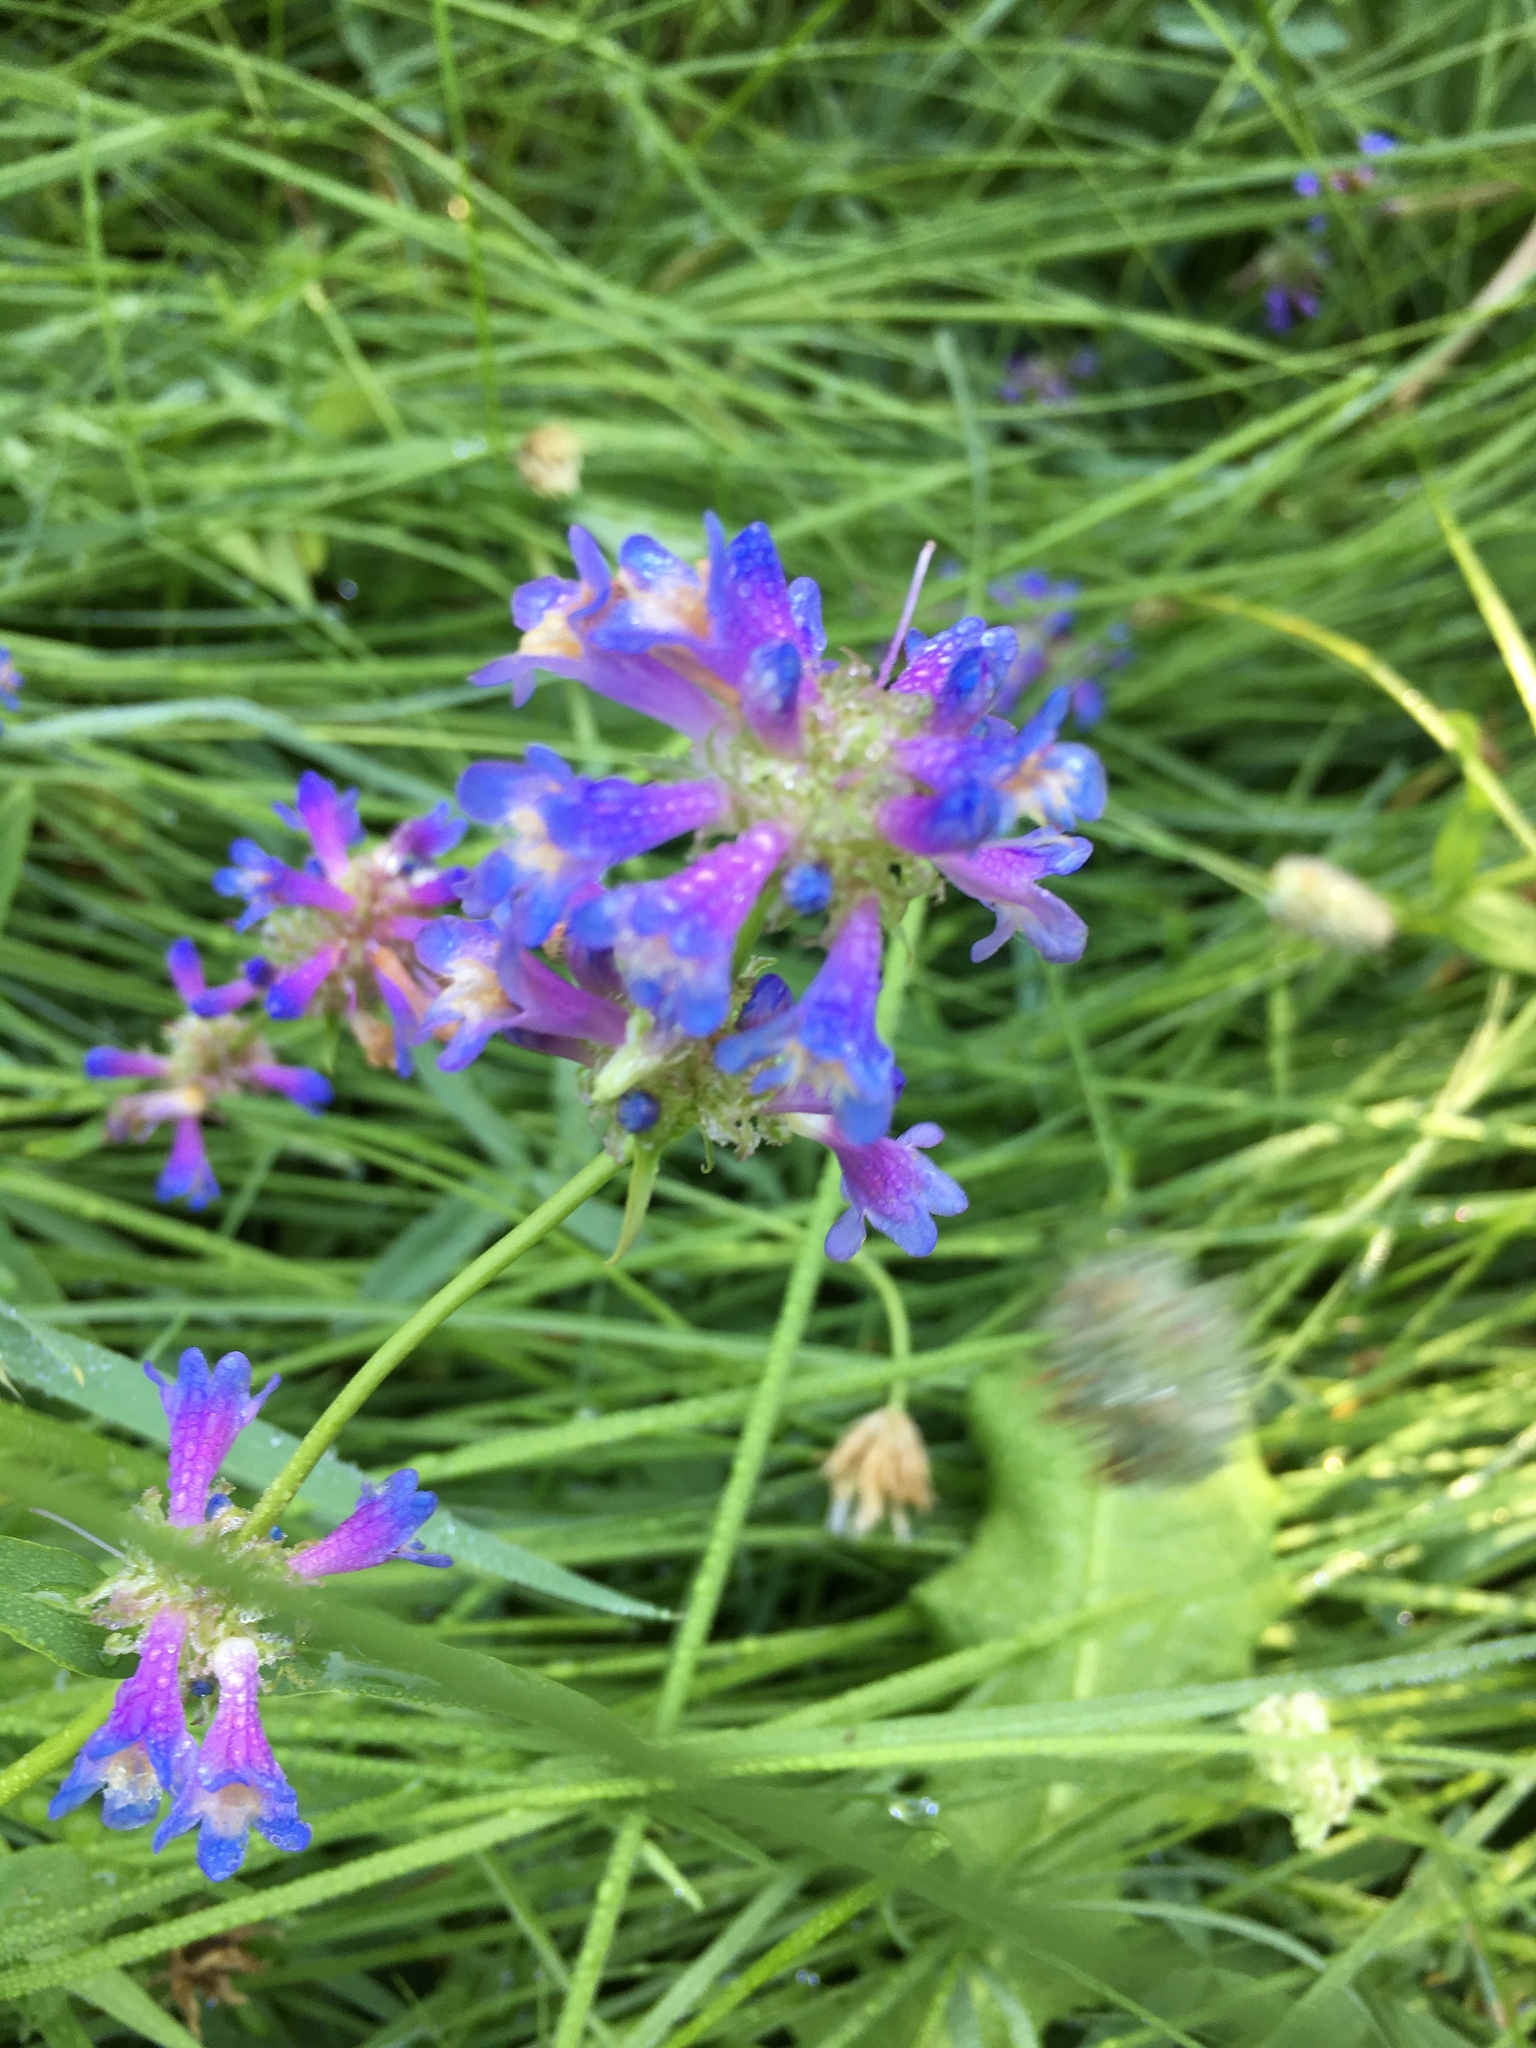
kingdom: Plantae
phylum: Tracheophyta
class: Magnoliopsida
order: Lamiales
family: Plantaginaceae
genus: Penstemon
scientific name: Penstemon rydbergii
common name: Rydberg's beardtongue
